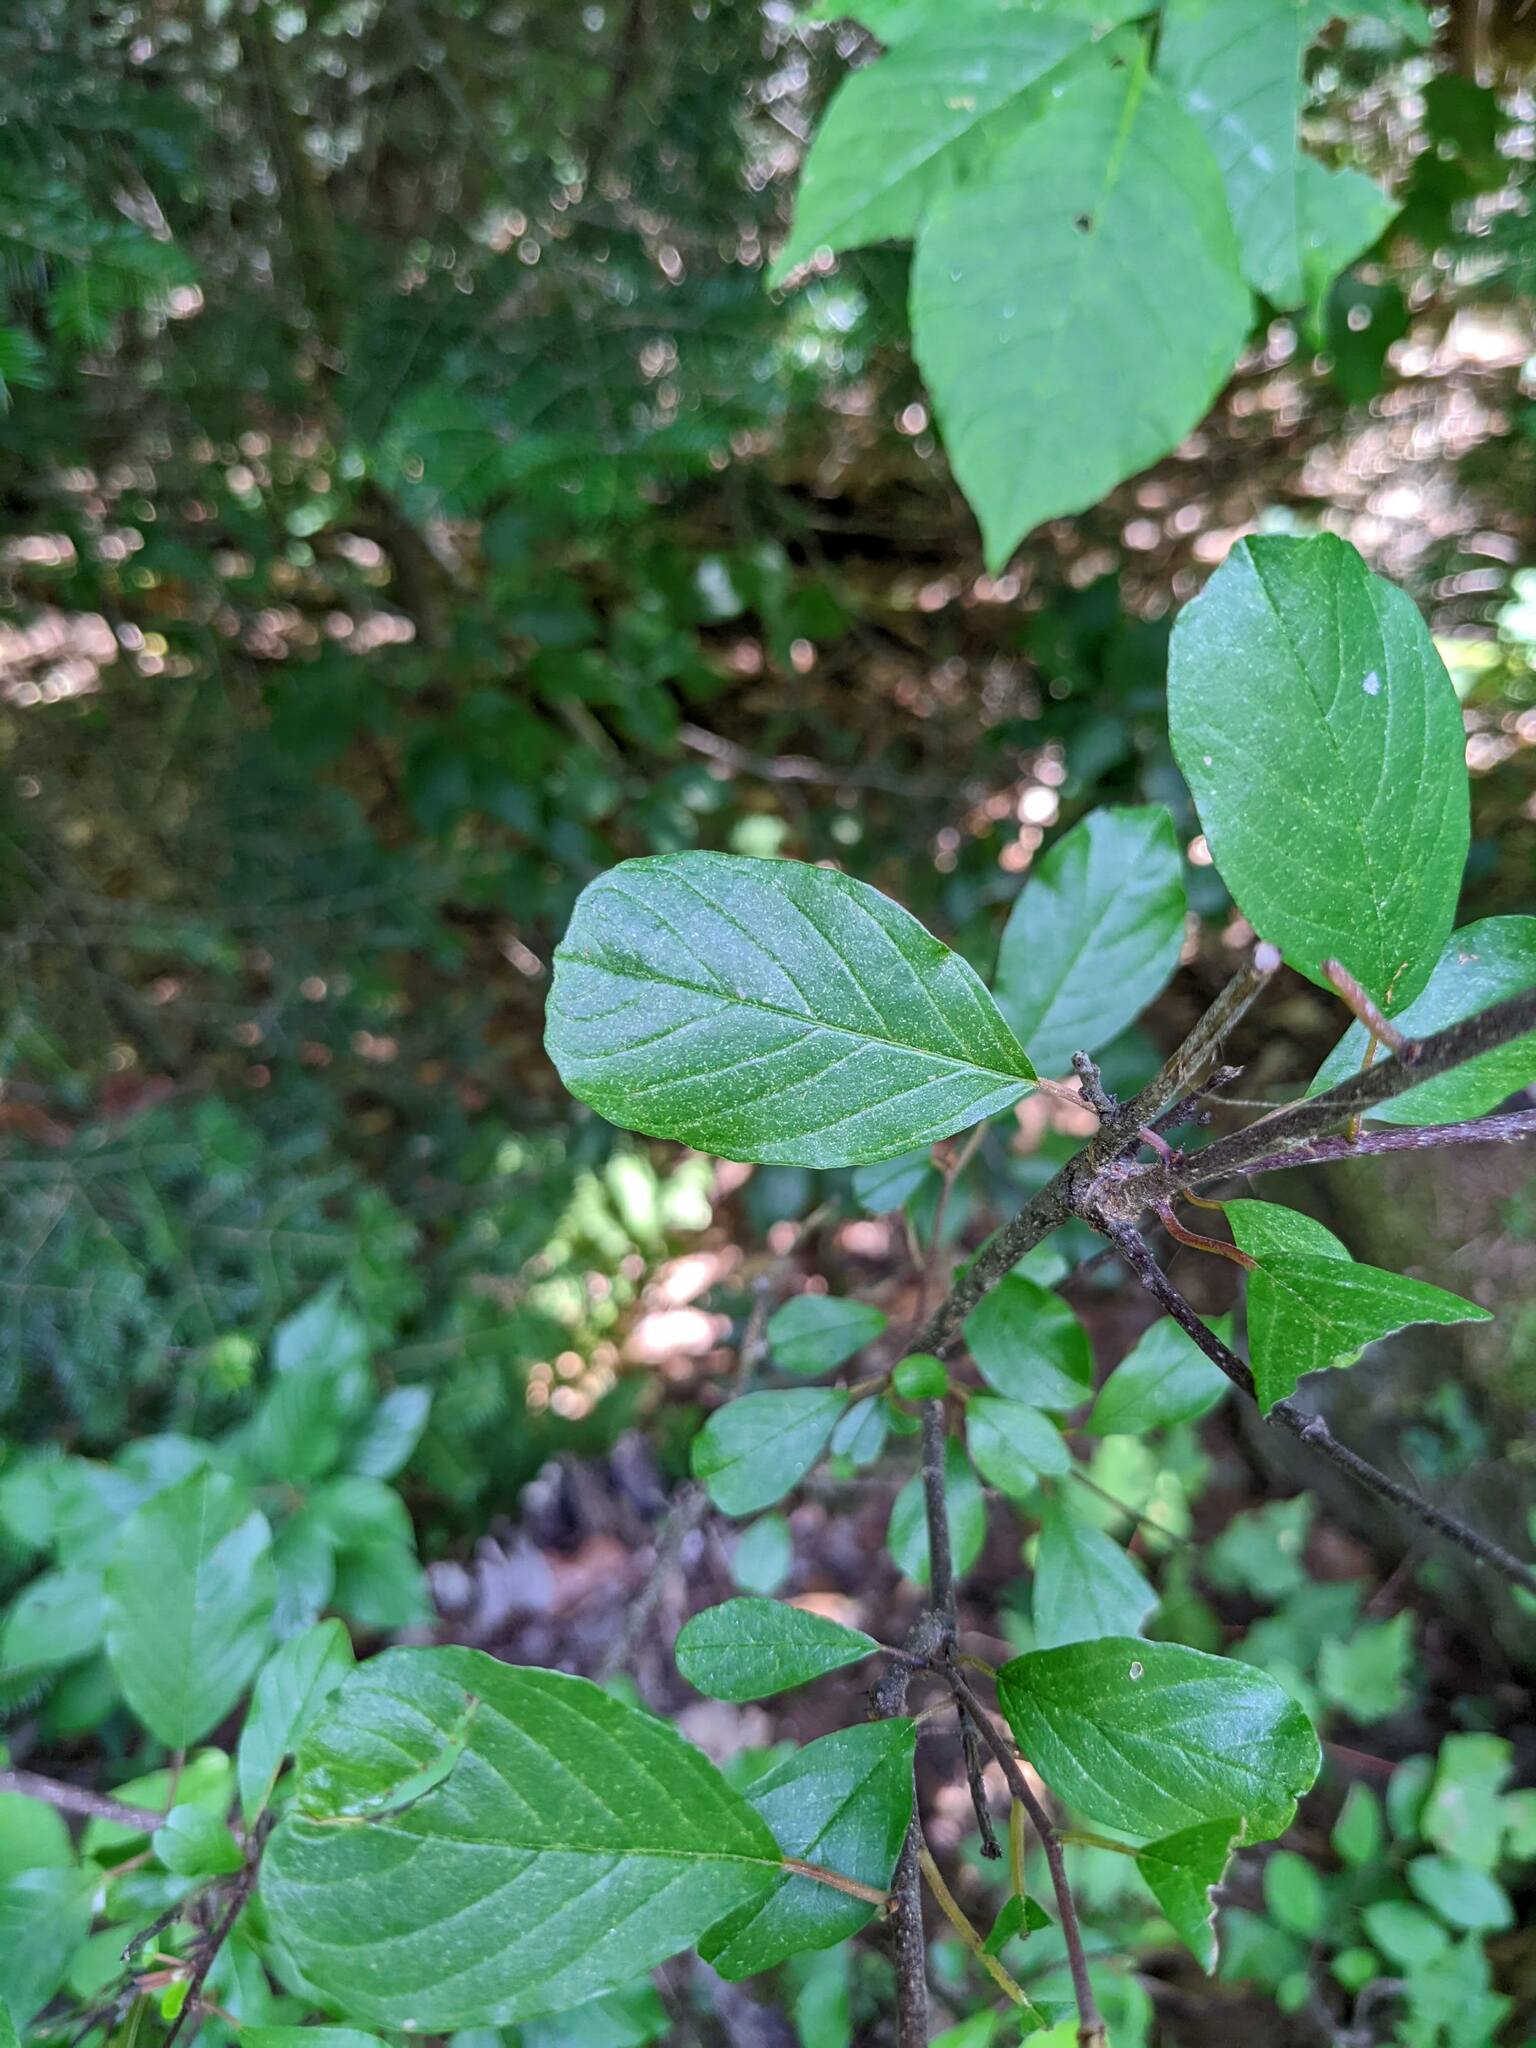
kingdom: Plantae
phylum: Tracheophyta
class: Magnoliopsida
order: Rosales
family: Rhamnaceae
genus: Frangula
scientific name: Frangula alnus
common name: Alder buckthorn
